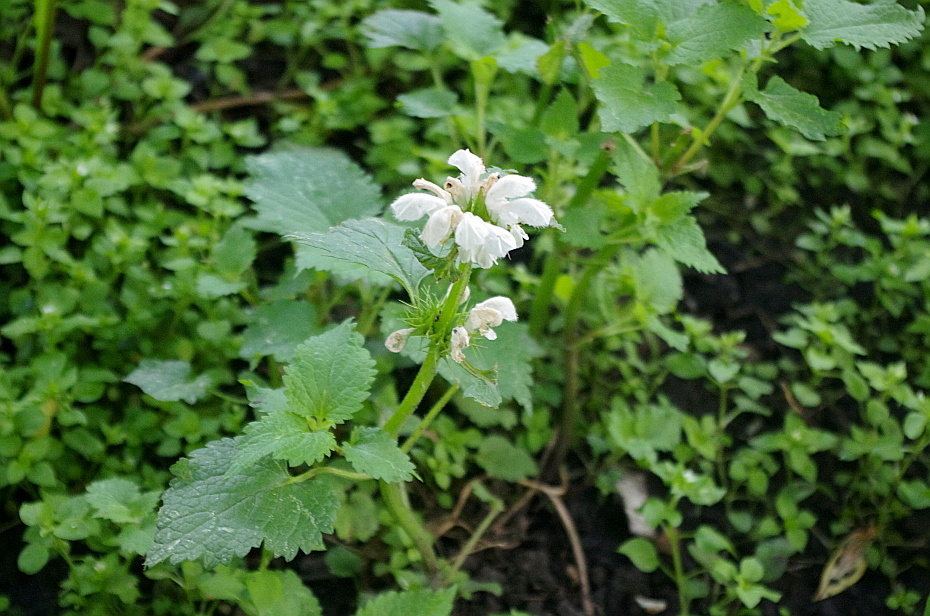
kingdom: Plantae
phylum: Tracheophyta
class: Magnoliopsida
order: Lamiales
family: Lamiaceae
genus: Lamium
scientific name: Lamium album
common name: White dead-nettle
